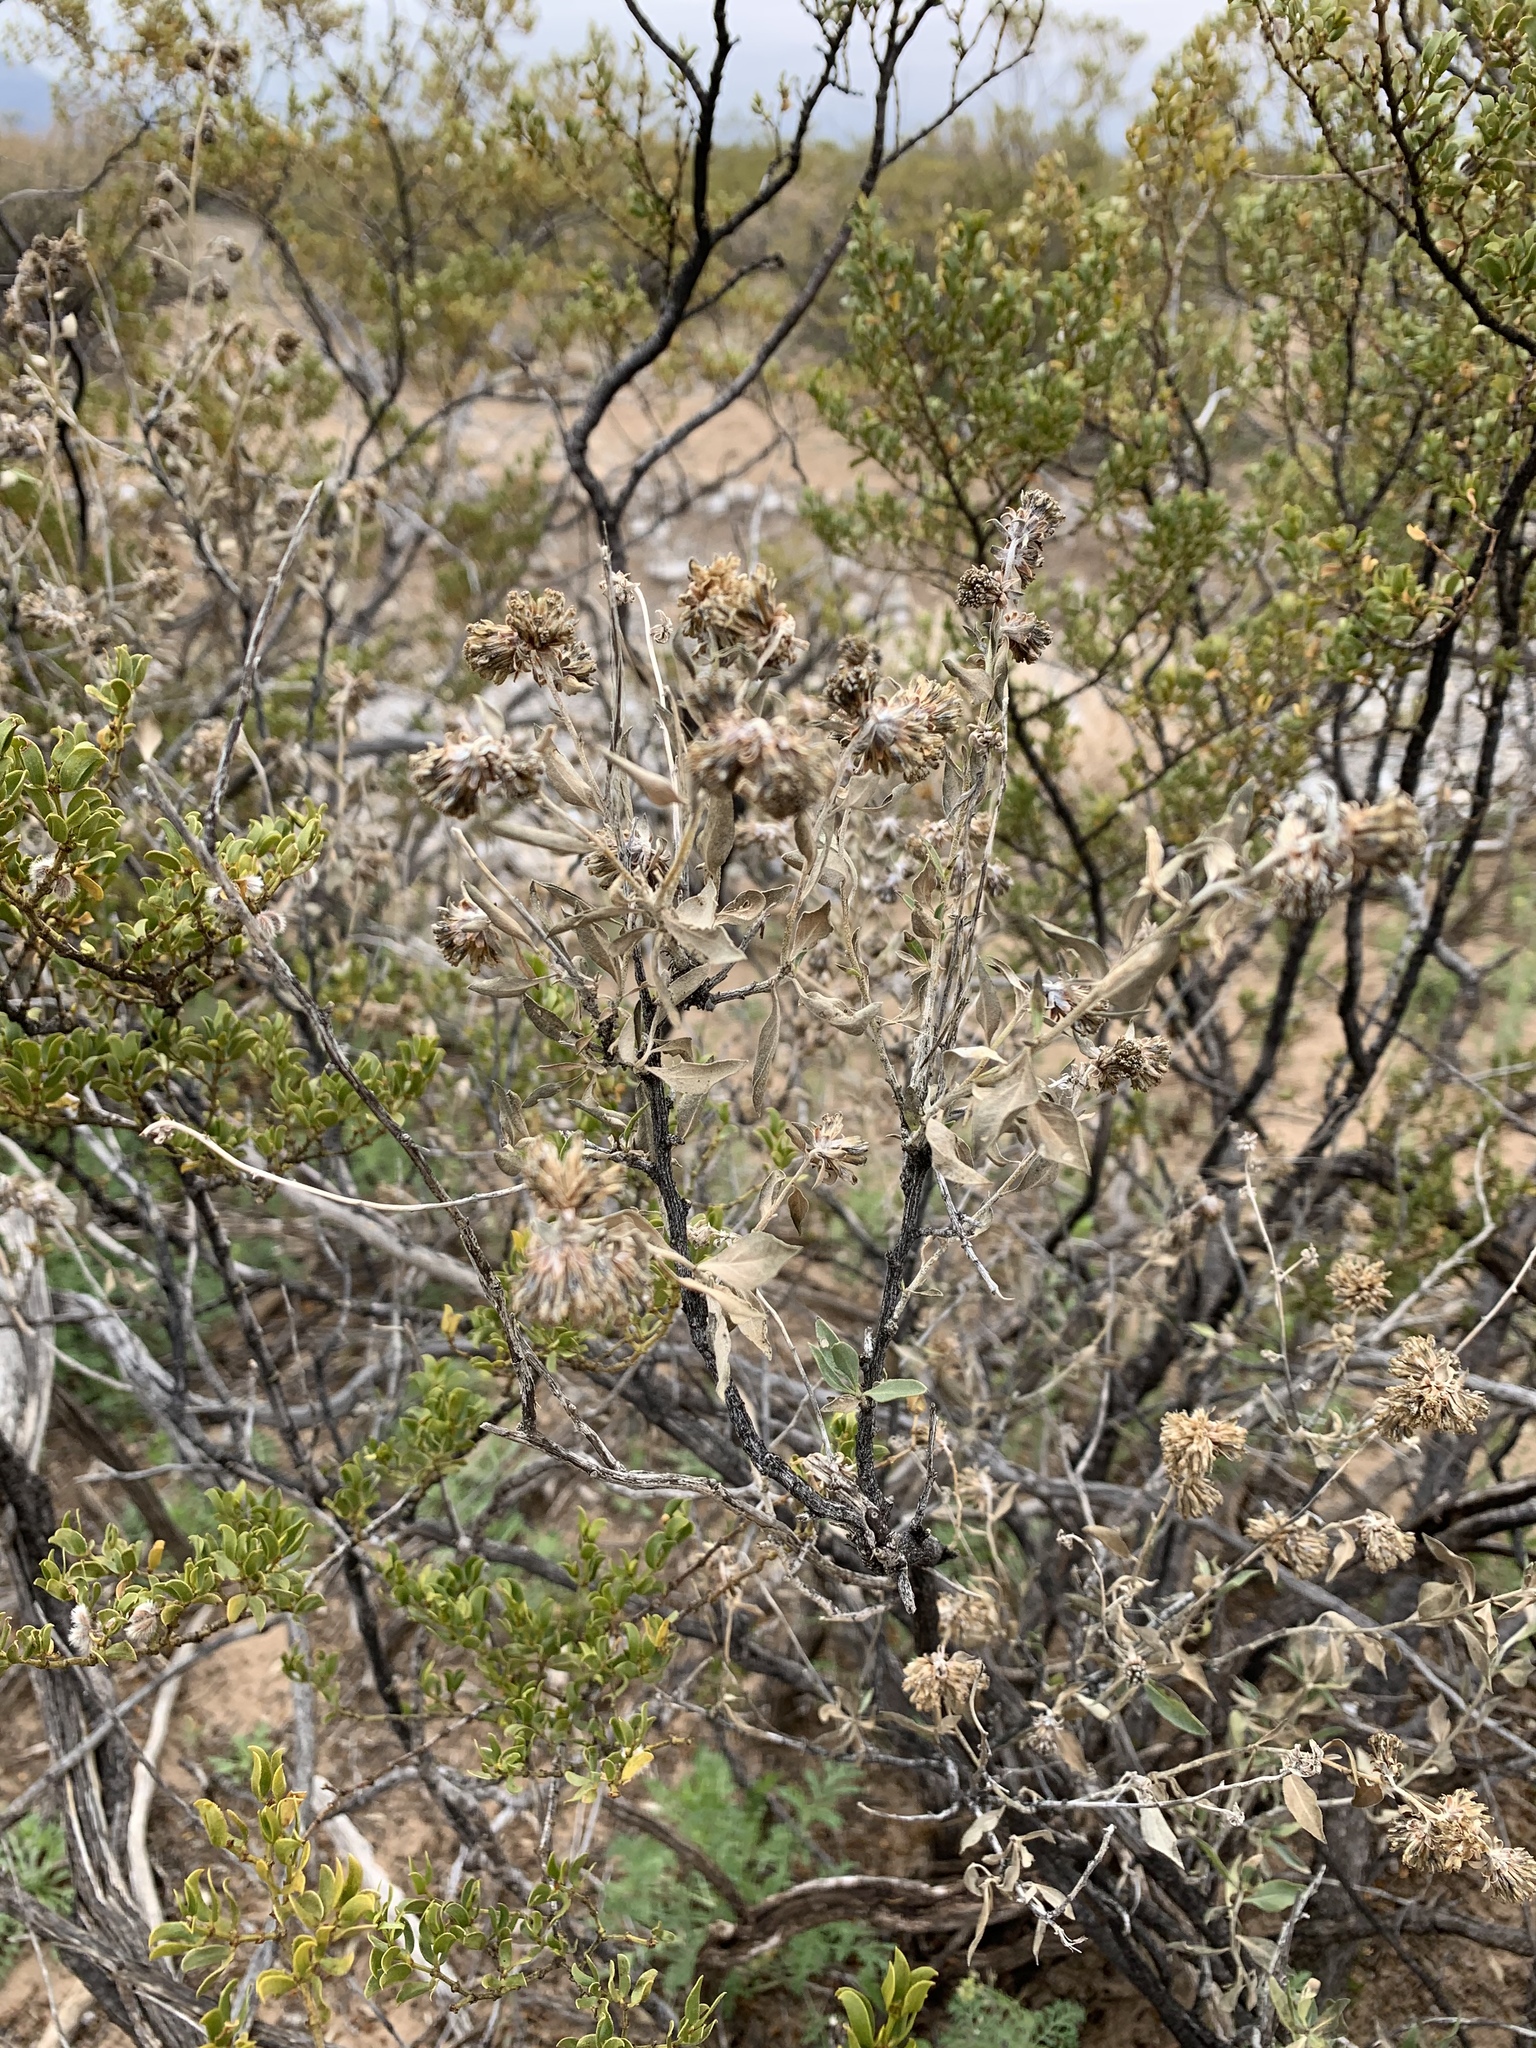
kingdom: Plantae
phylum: Tracheophyta
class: Magnoliopsida
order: Asterales
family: Asteraceae
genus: Flourensia
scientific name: Flourensia cernua
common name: Varnishbush
